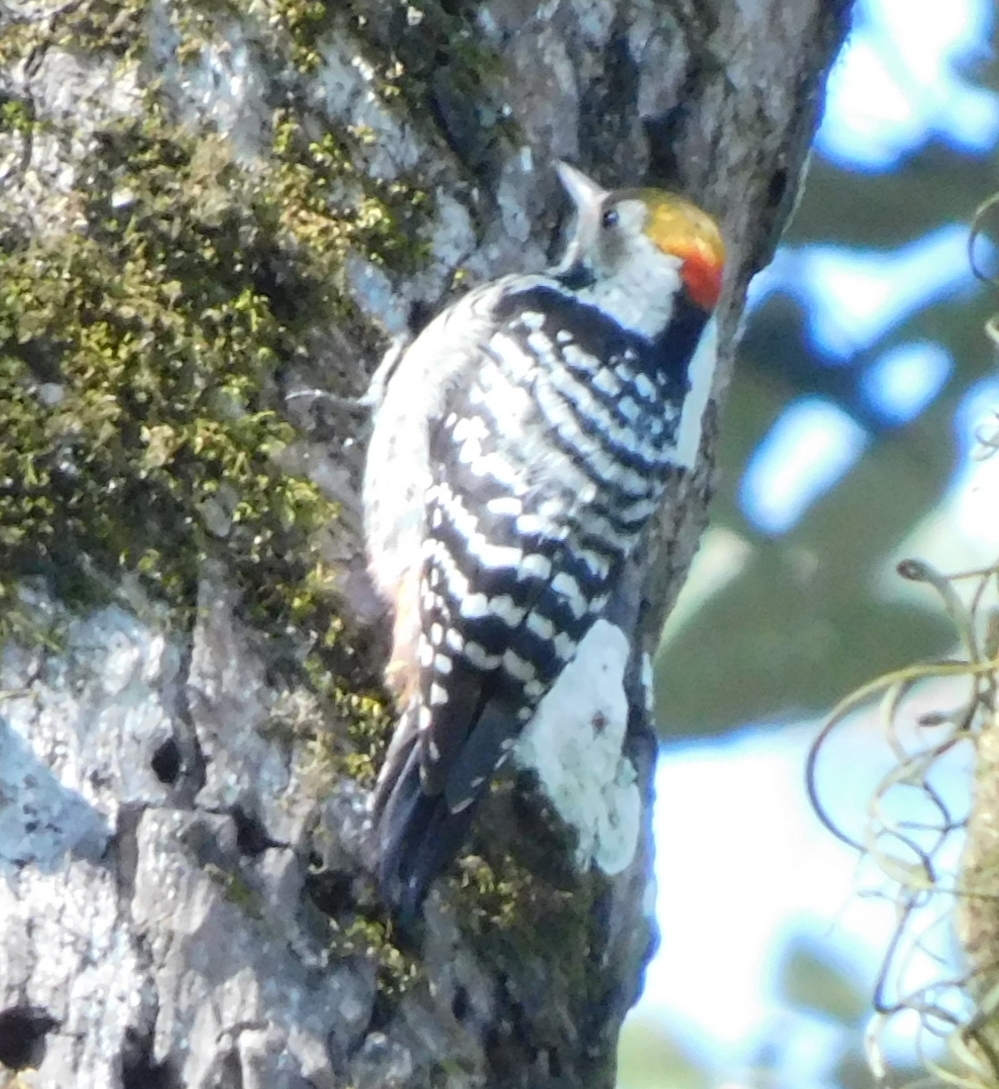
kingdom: Animalia
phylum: Chordata
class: Aves
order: Piciformes
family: Picidae
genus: Dendrocoptes
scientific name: Dendrocoptes auriceps
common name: Brown-fronted woodpecker
